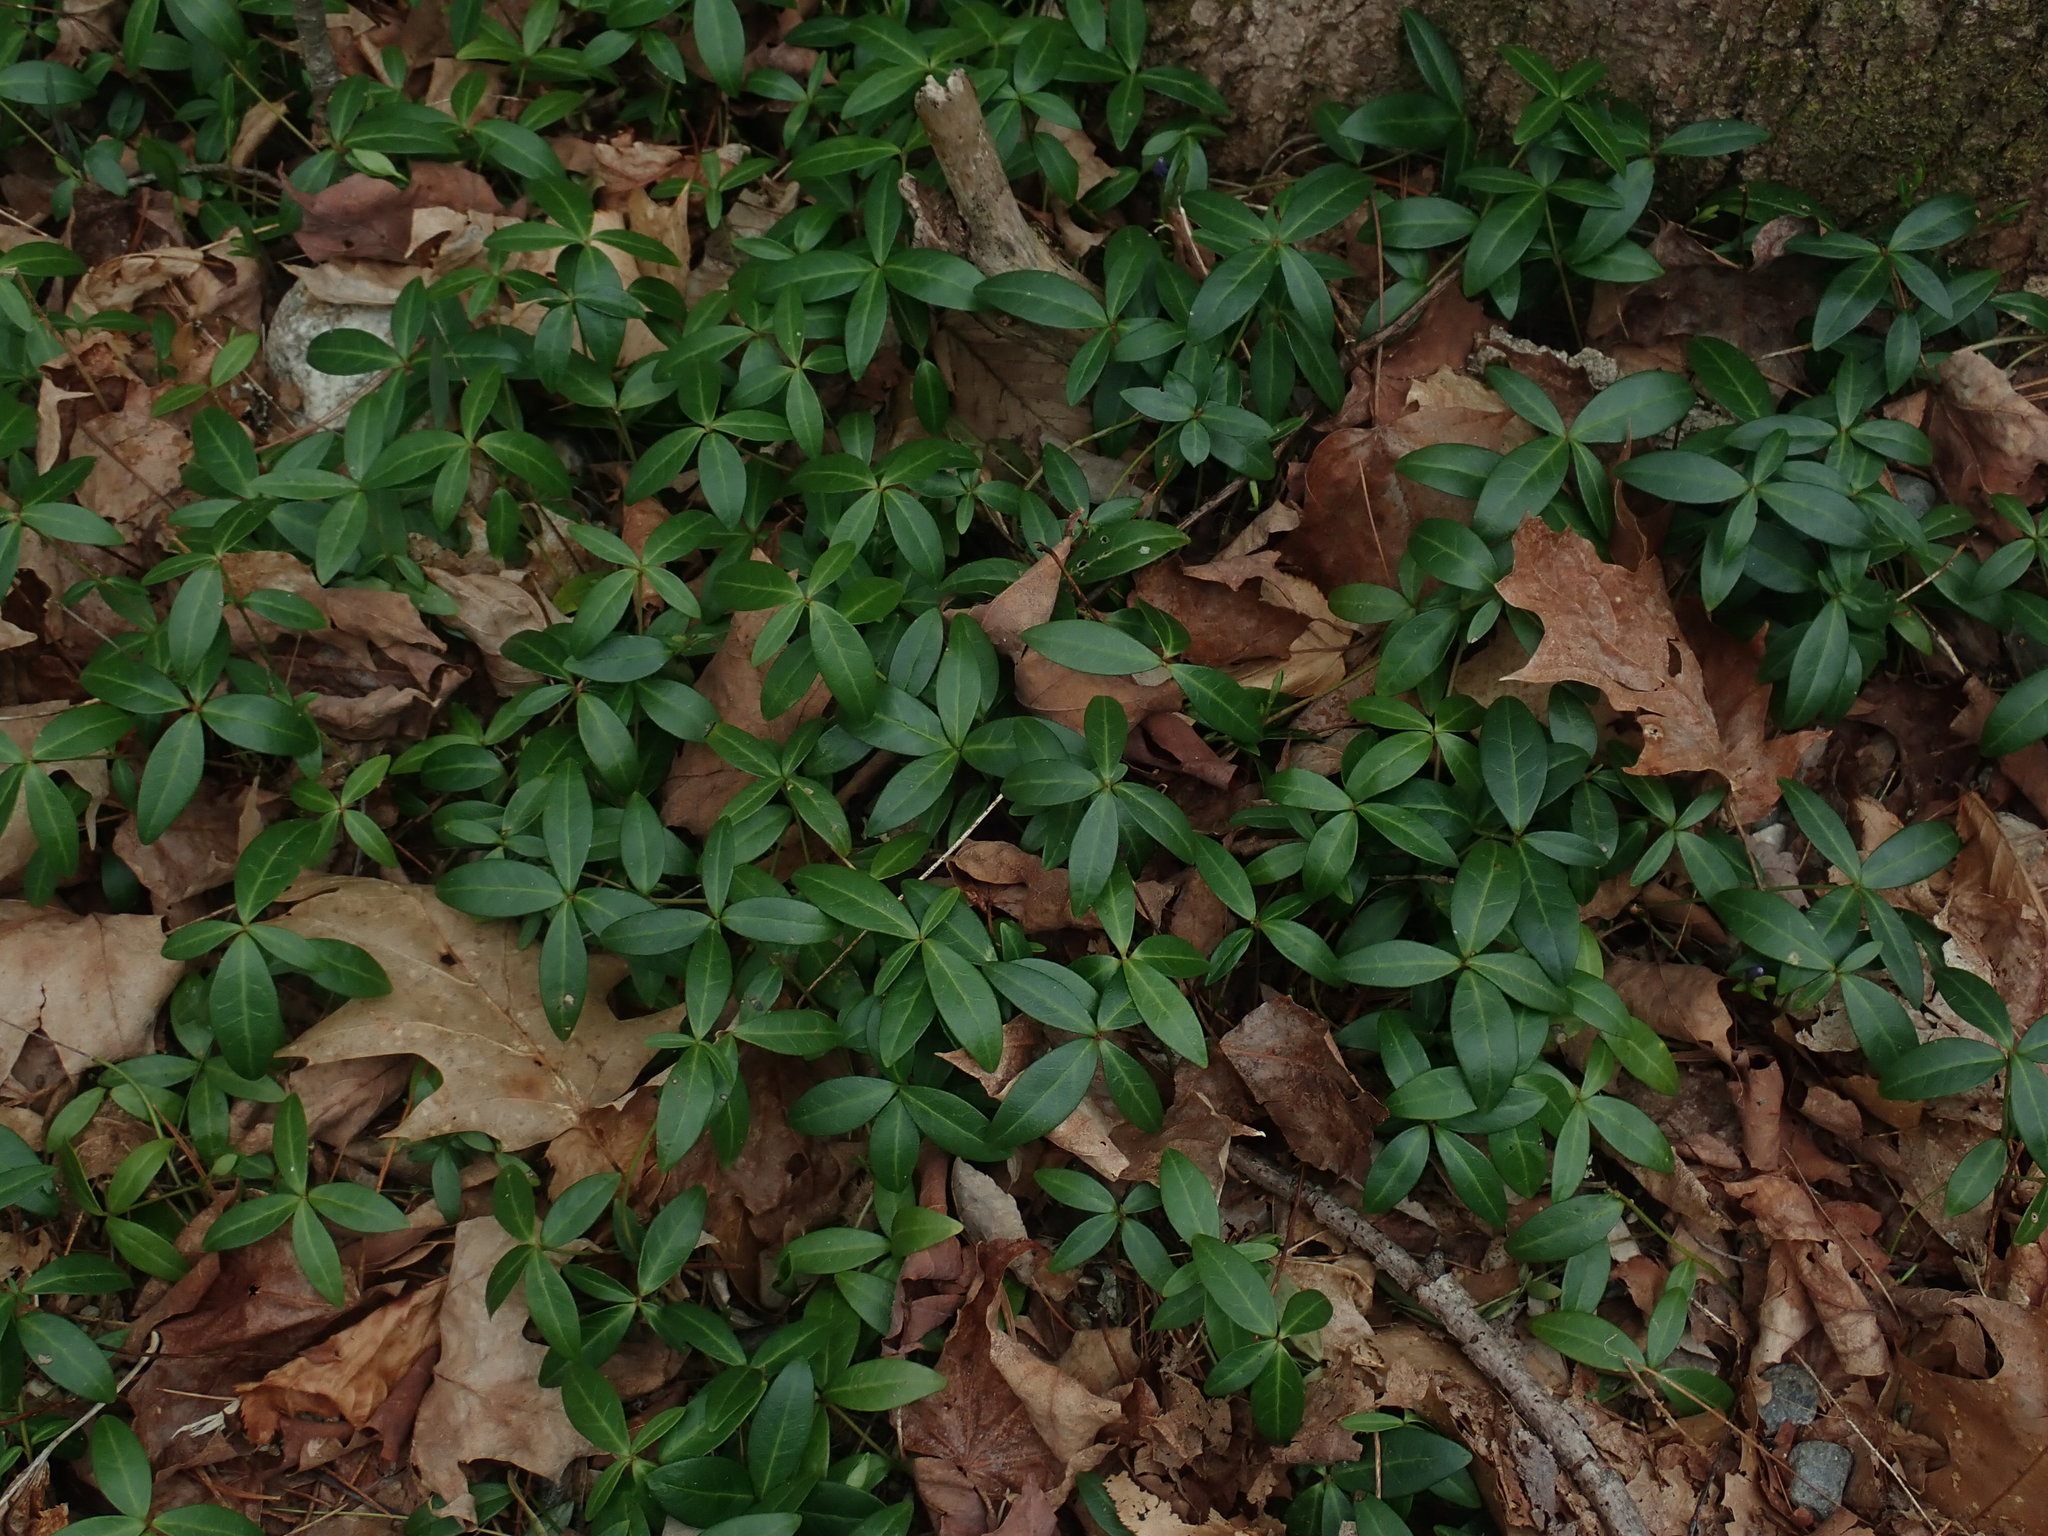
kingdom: Plantae
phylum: Tracheophyta
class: Magnoliopsida
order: Gentianales
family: Apocynaceae
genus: Vinca
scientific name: Vinca minor
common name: Lesser periwinkle
